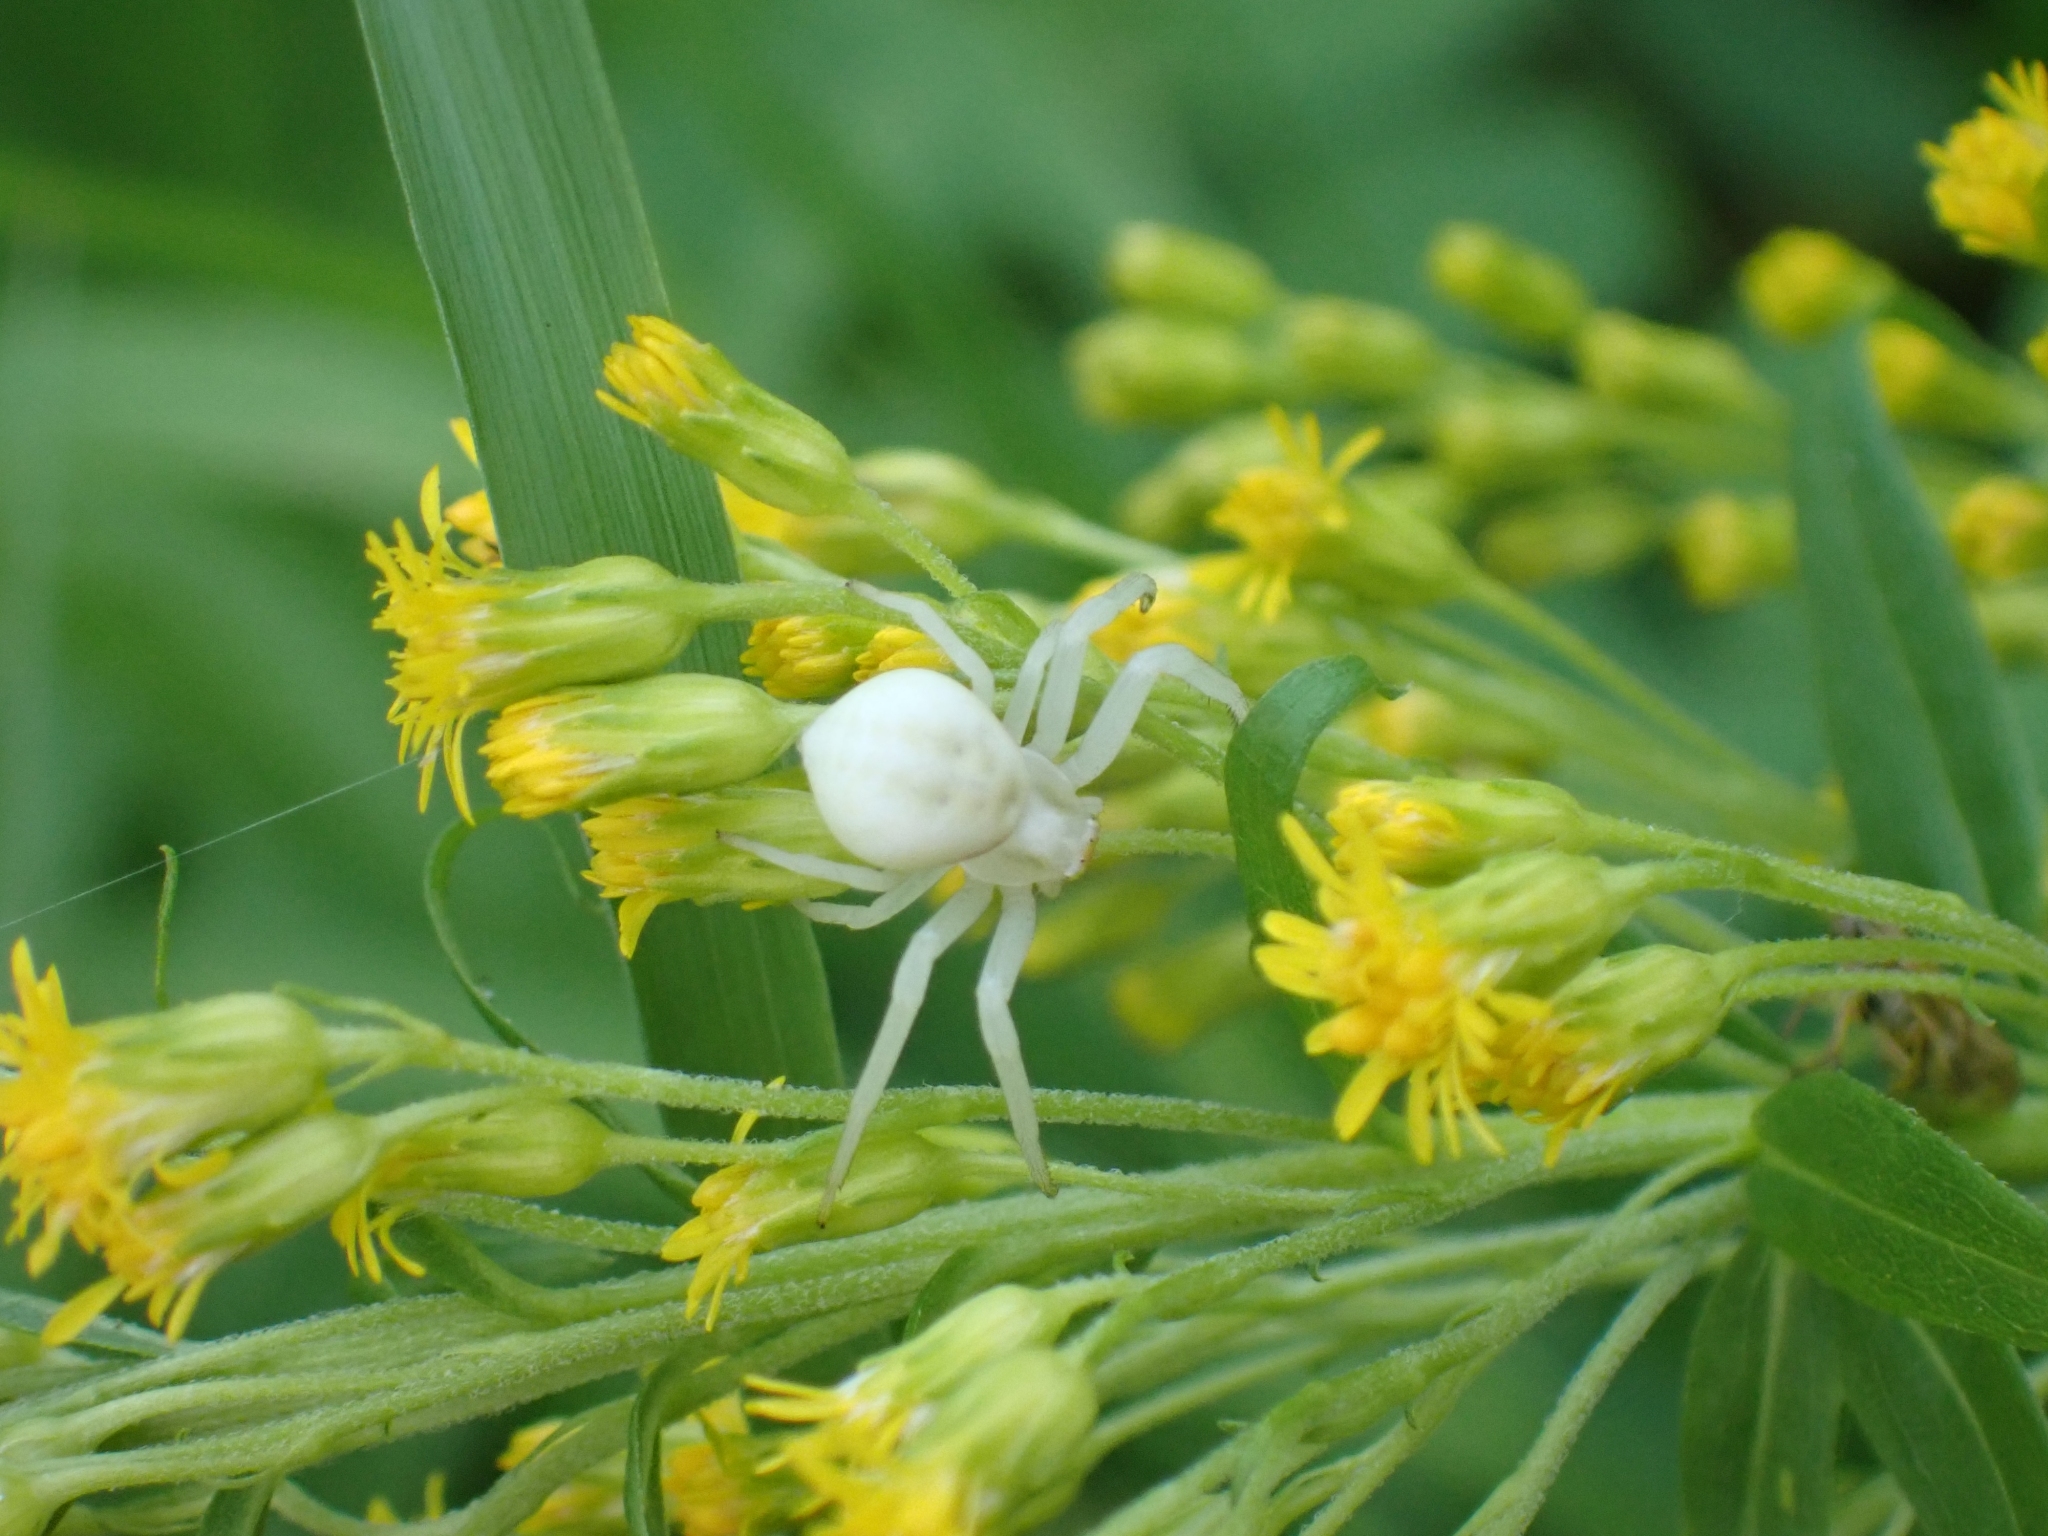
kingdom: Animalia
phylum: Arthropoda
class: Arachnida
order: Araneae
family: Thomisidae
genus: Misumena
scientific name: Misumena vatia
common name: Goldenrod crab spider
